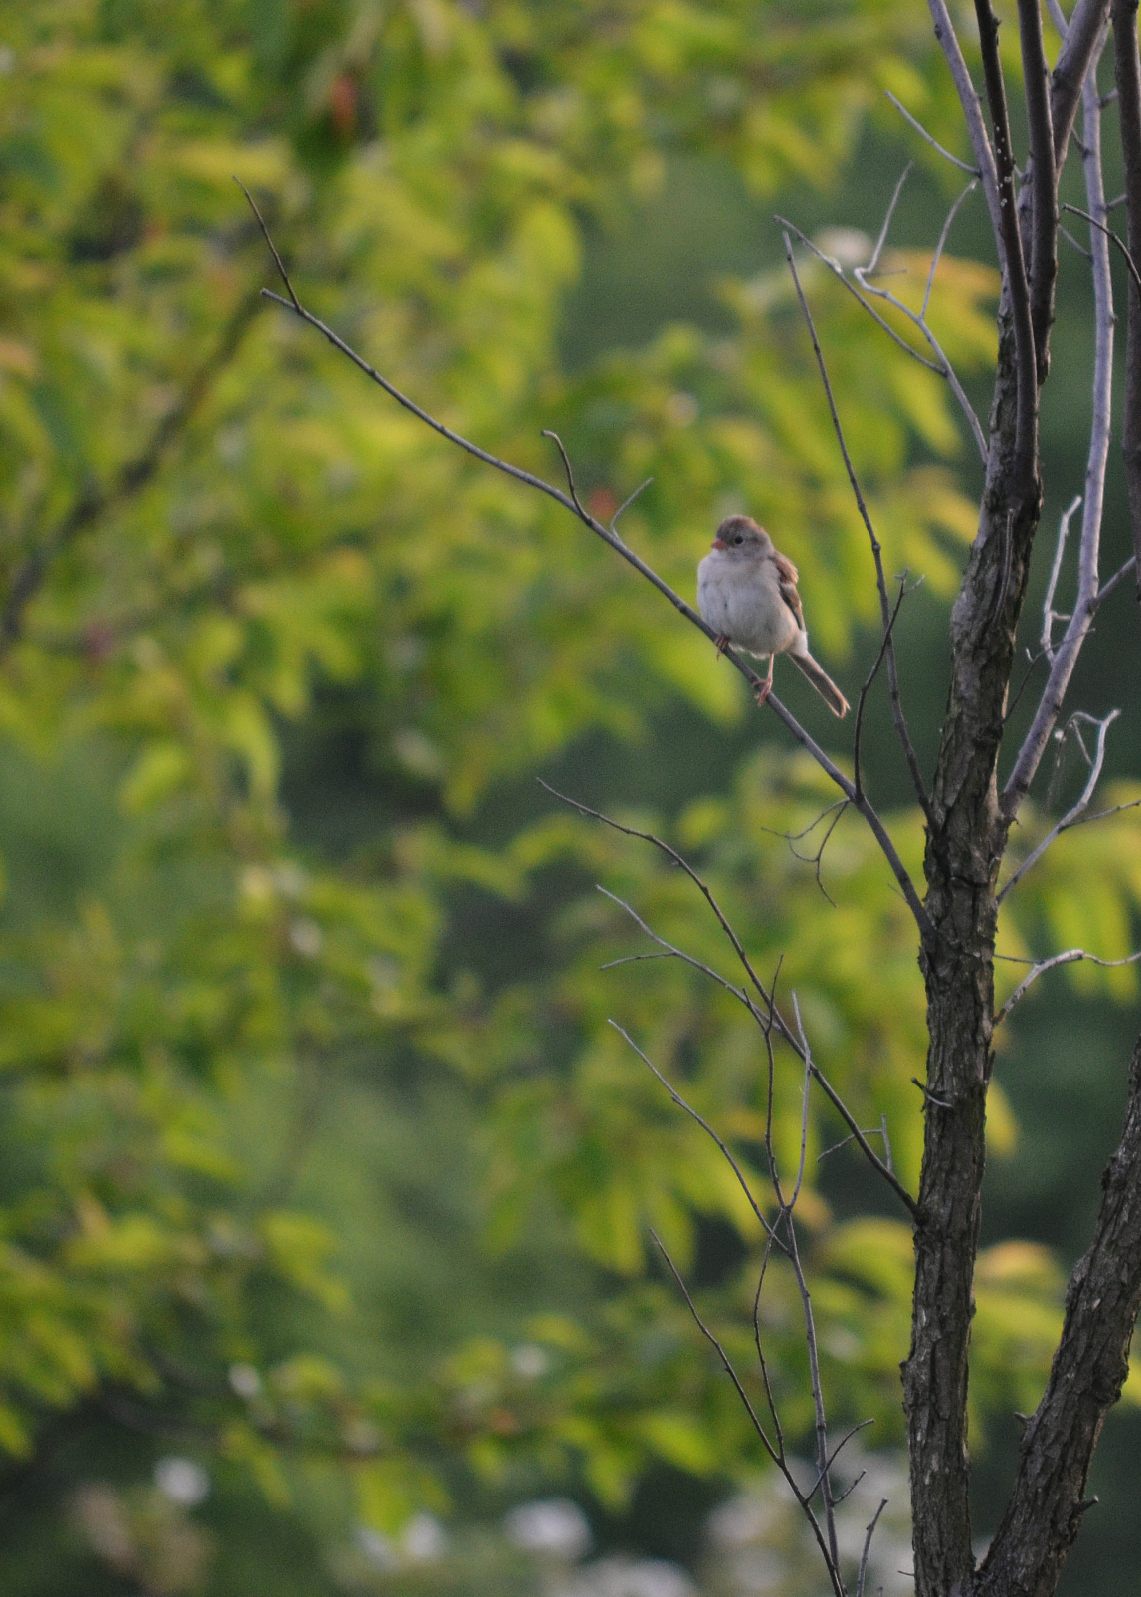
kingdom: Animalia
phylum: Chordata
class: Aves
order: Passeriformes
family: Passerellidae
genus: Spizella
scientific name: Spizella pusilla
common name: Field sparrow
